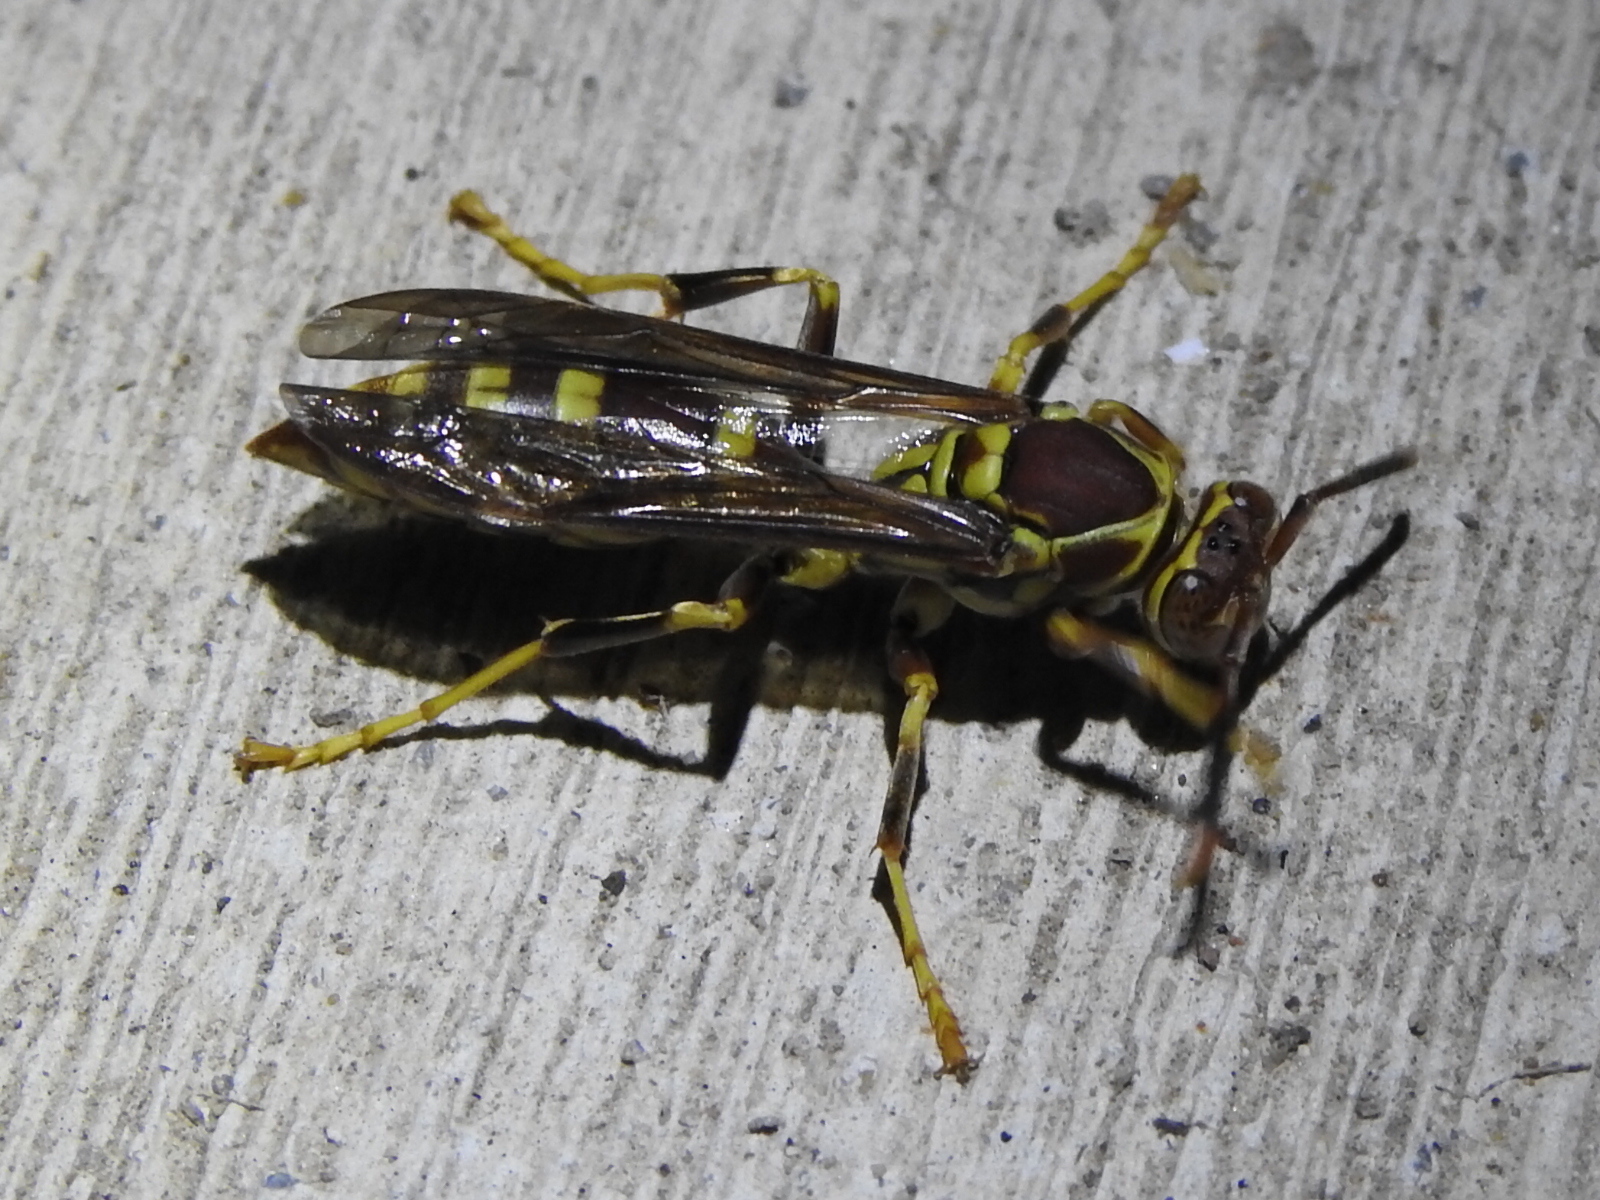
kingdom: Animalia
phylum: Arthropoda
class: Insecta
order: Hymenoptera
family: Eumenidae
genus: Polistes
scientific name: Polistes exclamans
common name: Paper wasp
